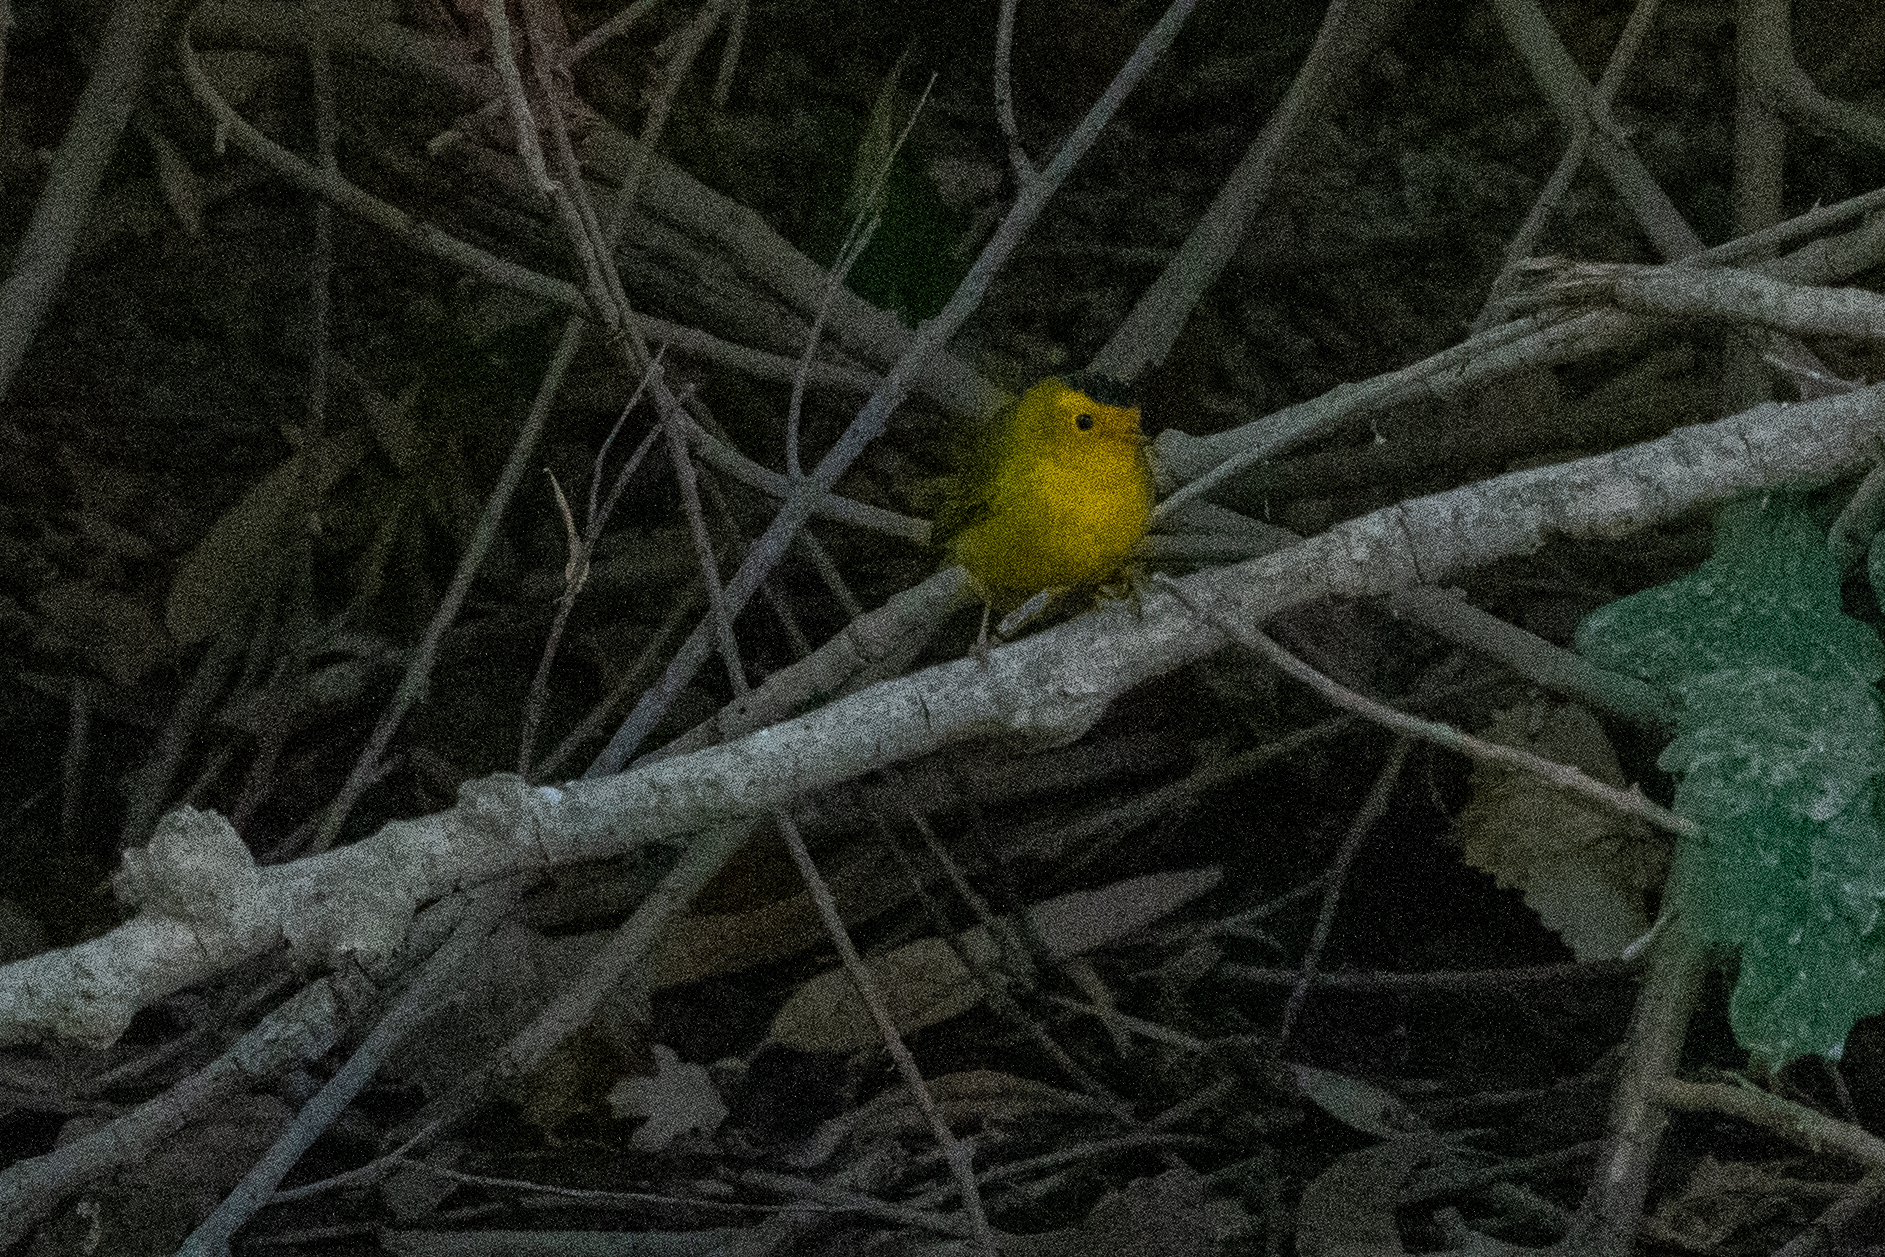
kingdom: Animalia
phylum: Chordata
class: Aves
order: Passeriformes
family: Parulidae
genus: Cardellina
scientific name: Cardellina pusilla
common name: Wilson's warbler
